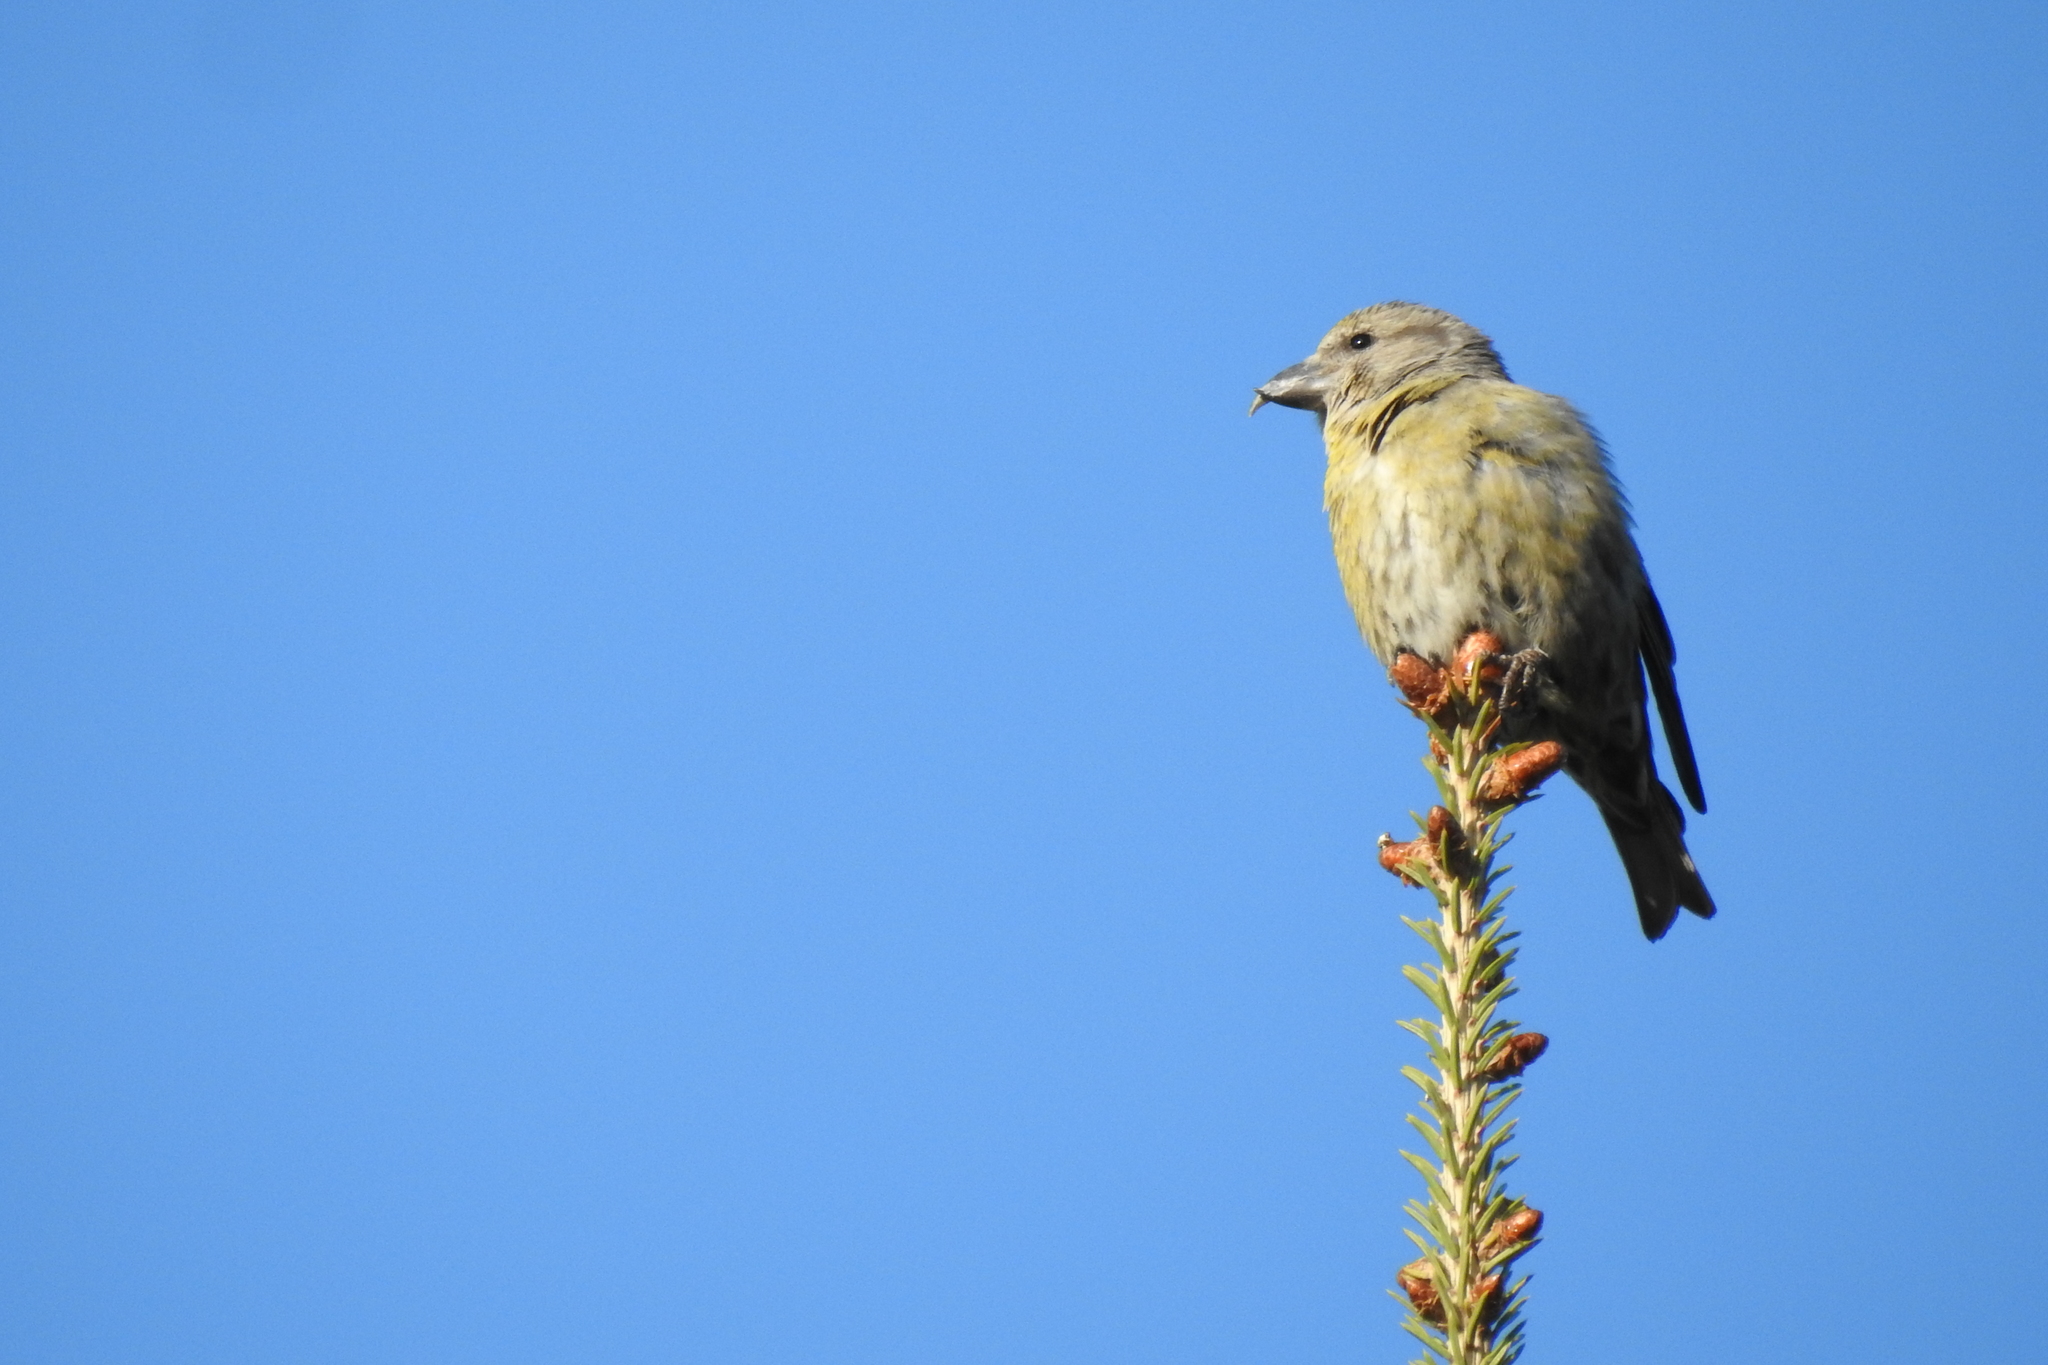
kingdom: Animalia
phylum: Chordata
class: Aves
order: Passeriformes
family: Fringillidae
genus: Loxia
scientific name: Loxia curvirostra
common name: Red crossbill
